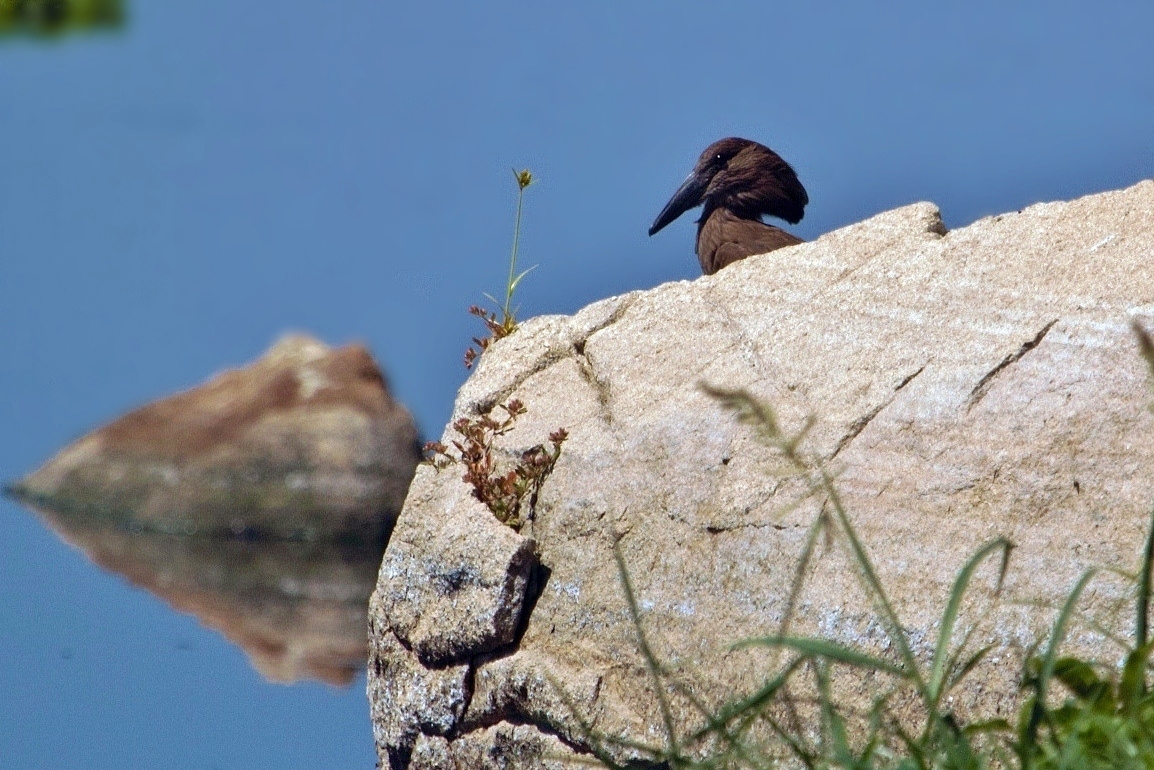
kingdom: Animalia
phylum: Chordata
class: Aves
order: Pelecaniformes
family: Scopidae
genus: Scopus
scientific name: Scopus umbretta
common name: Hamerkop
